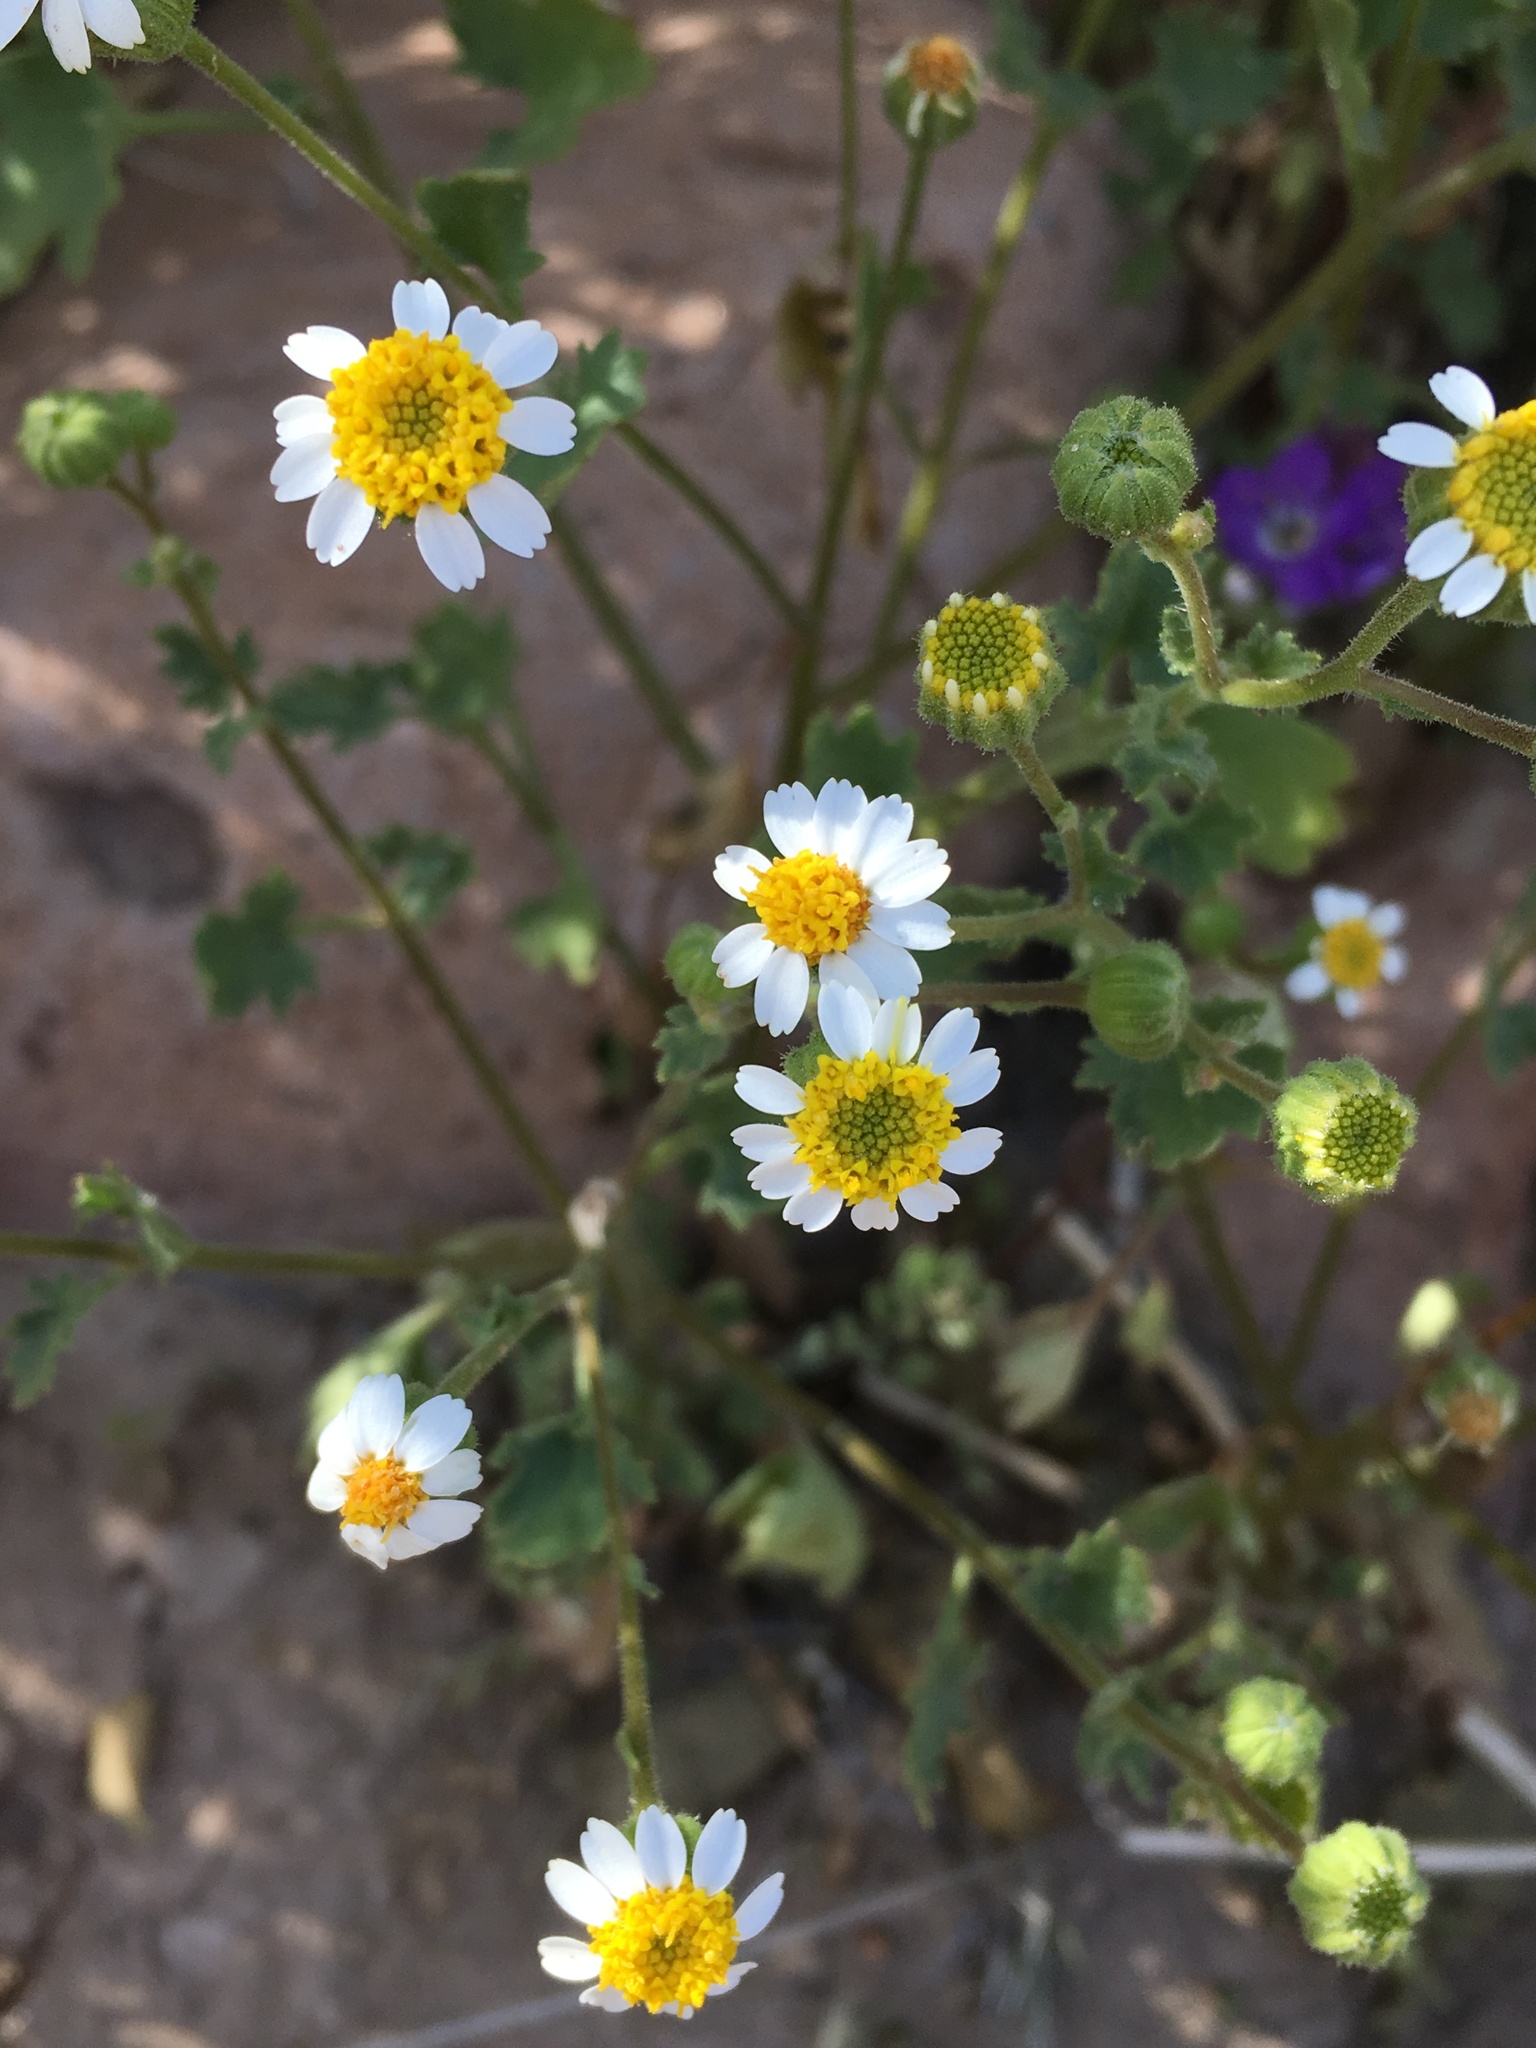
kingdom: Plantae
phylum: Tracheophyta
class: Magnoliopsida
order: Asterales
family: Asteraceae
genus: Laphamia
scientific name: Laphamia emoryi
